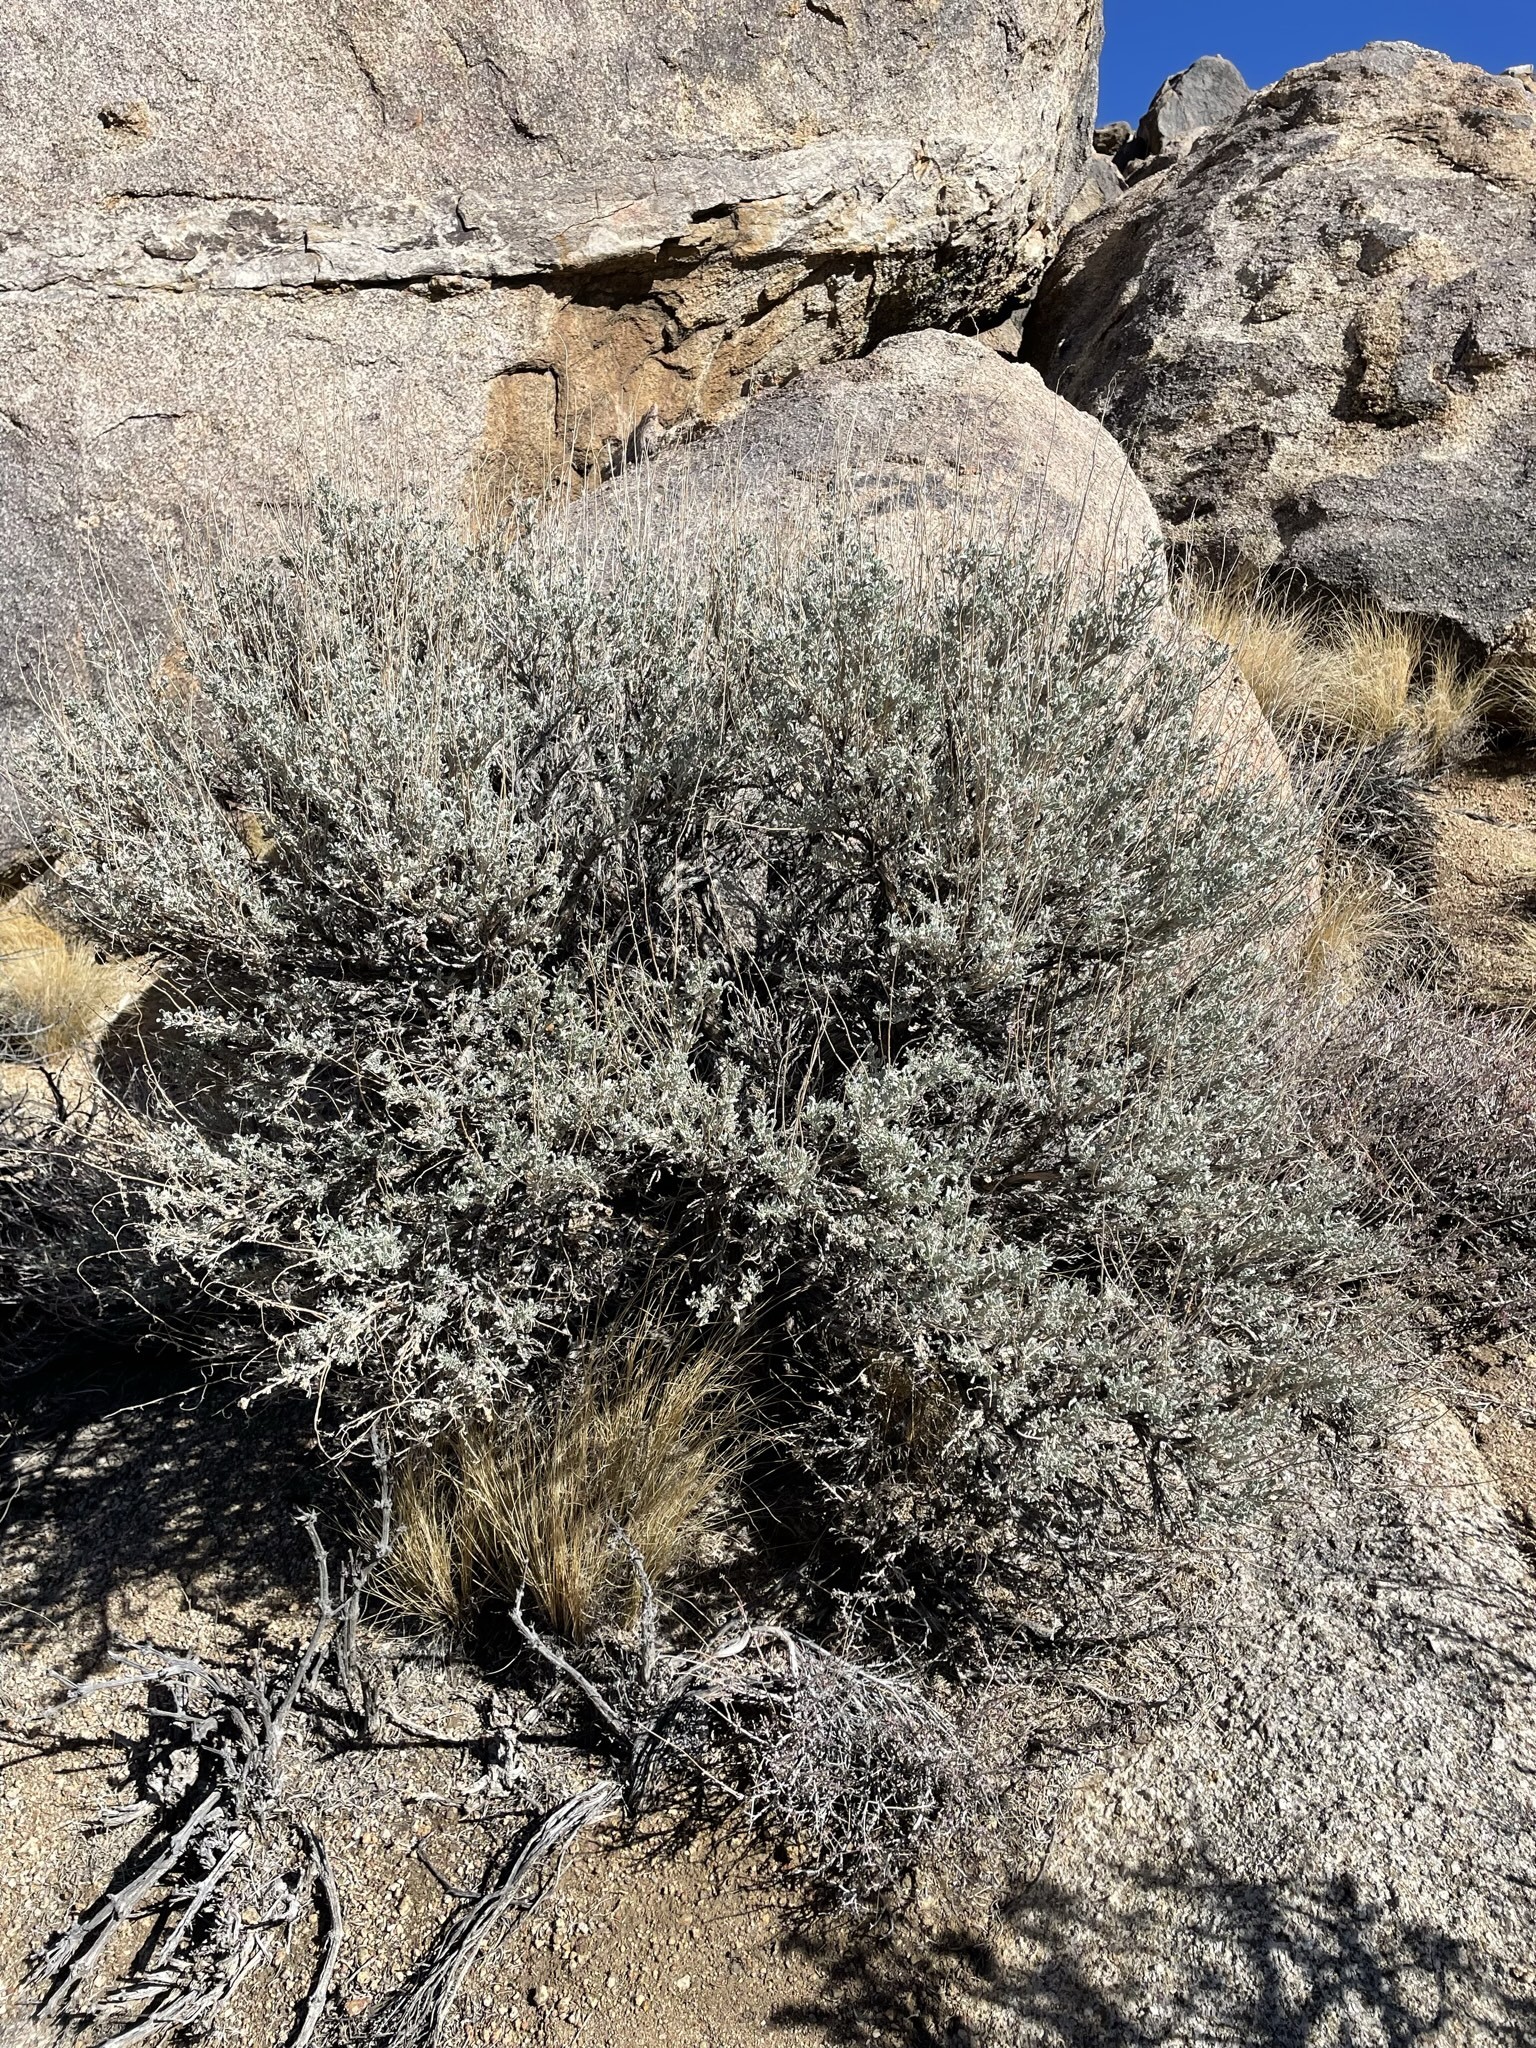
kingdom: Plantae
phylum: Tracheophyta
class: Magnoliopsida
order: Asterales
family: Asteraceae
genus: Artemisia
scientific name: Artemisia tridentata
